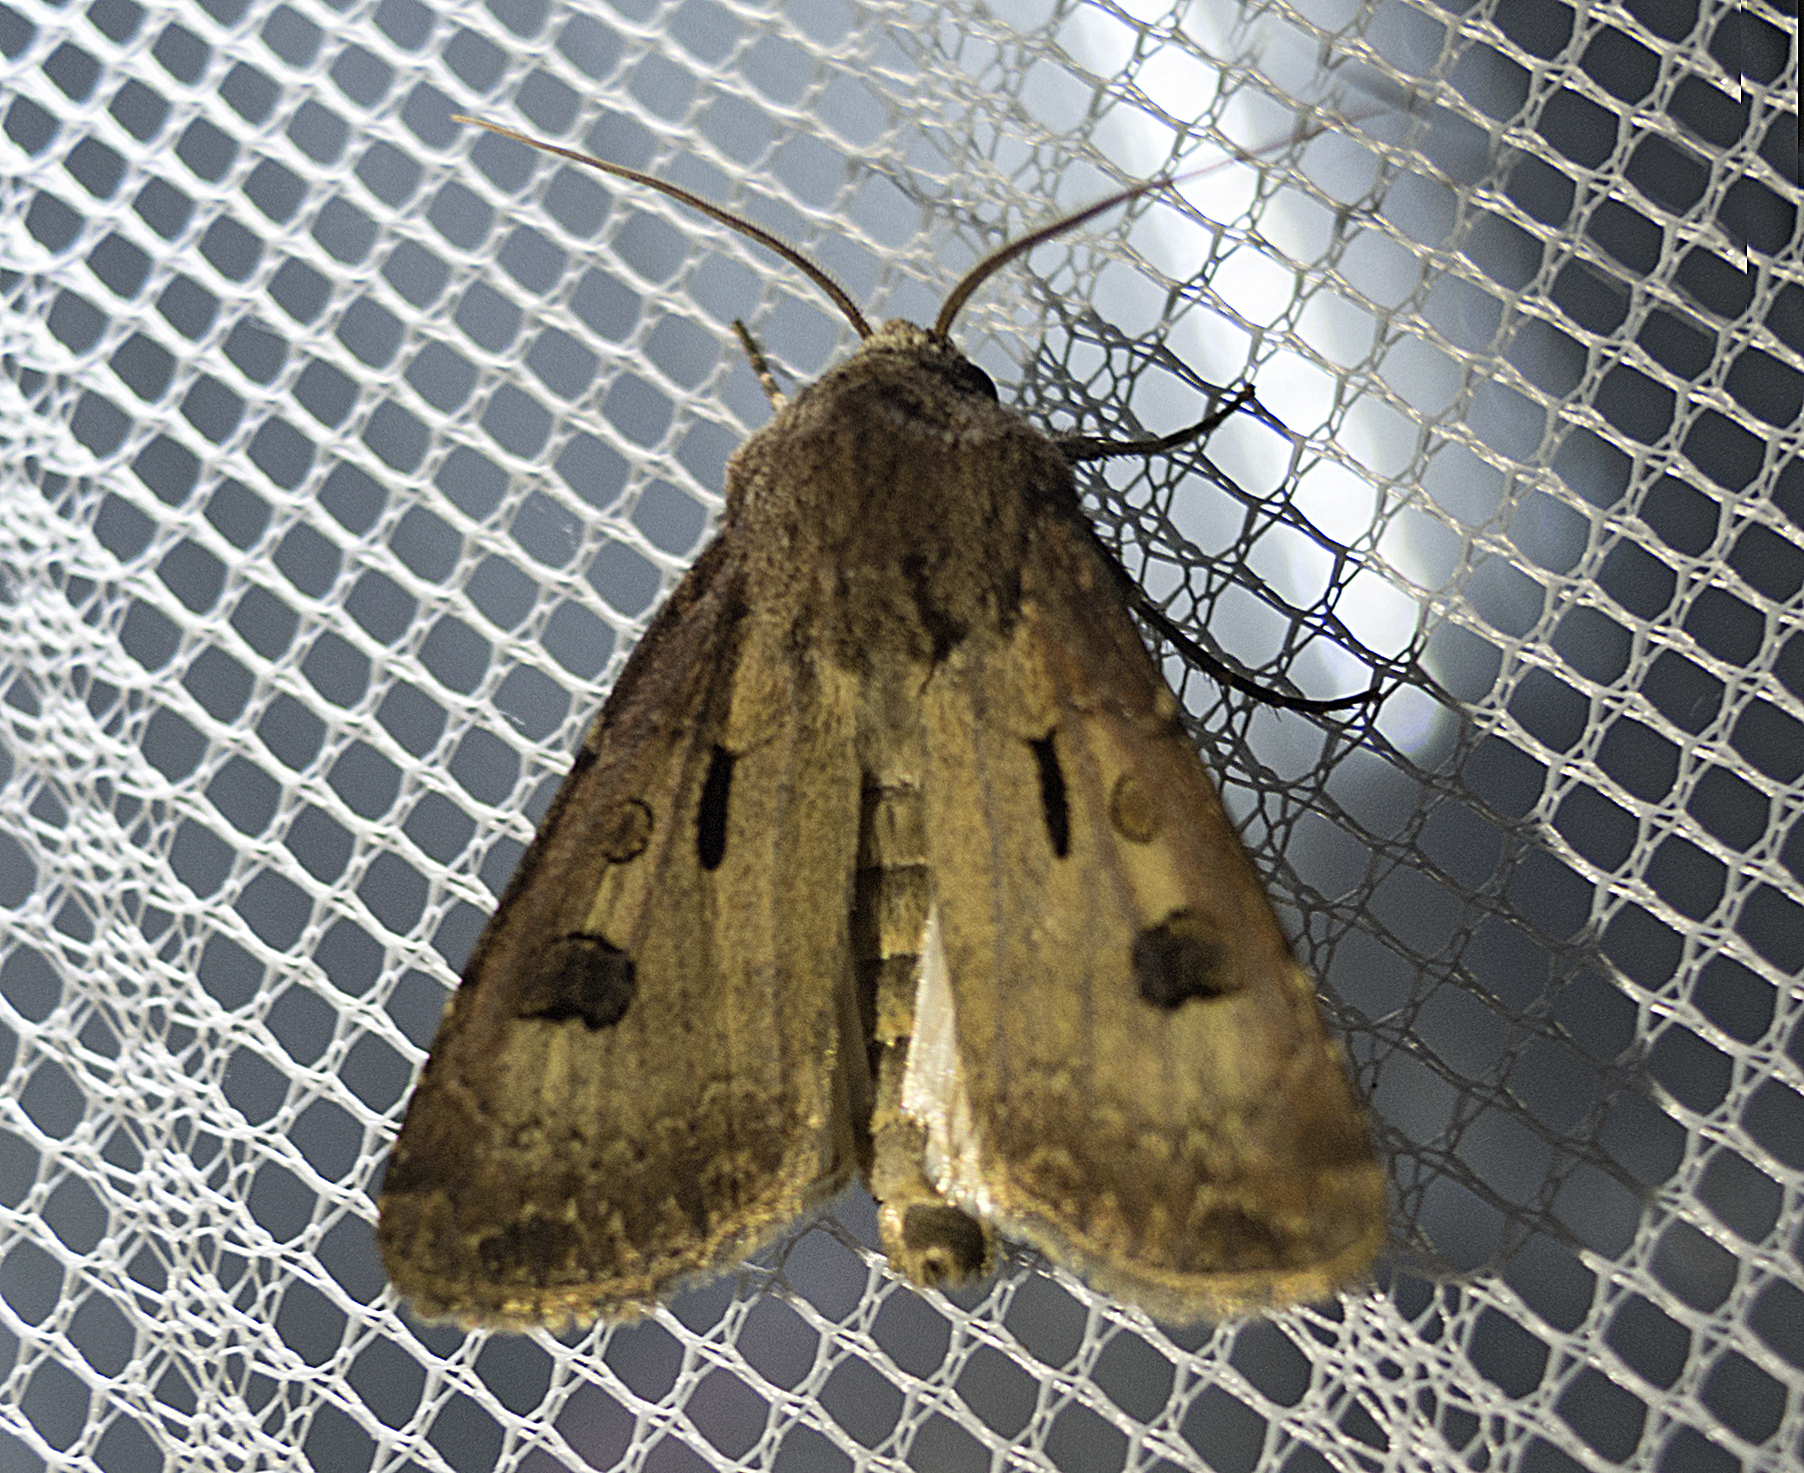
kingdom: Animalia
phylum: Arthropoda
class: Insecta
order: Lepidoptera
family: Noctuidae
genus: Agrotis
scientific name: Agrotis exclamationis
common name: Heart and dart
